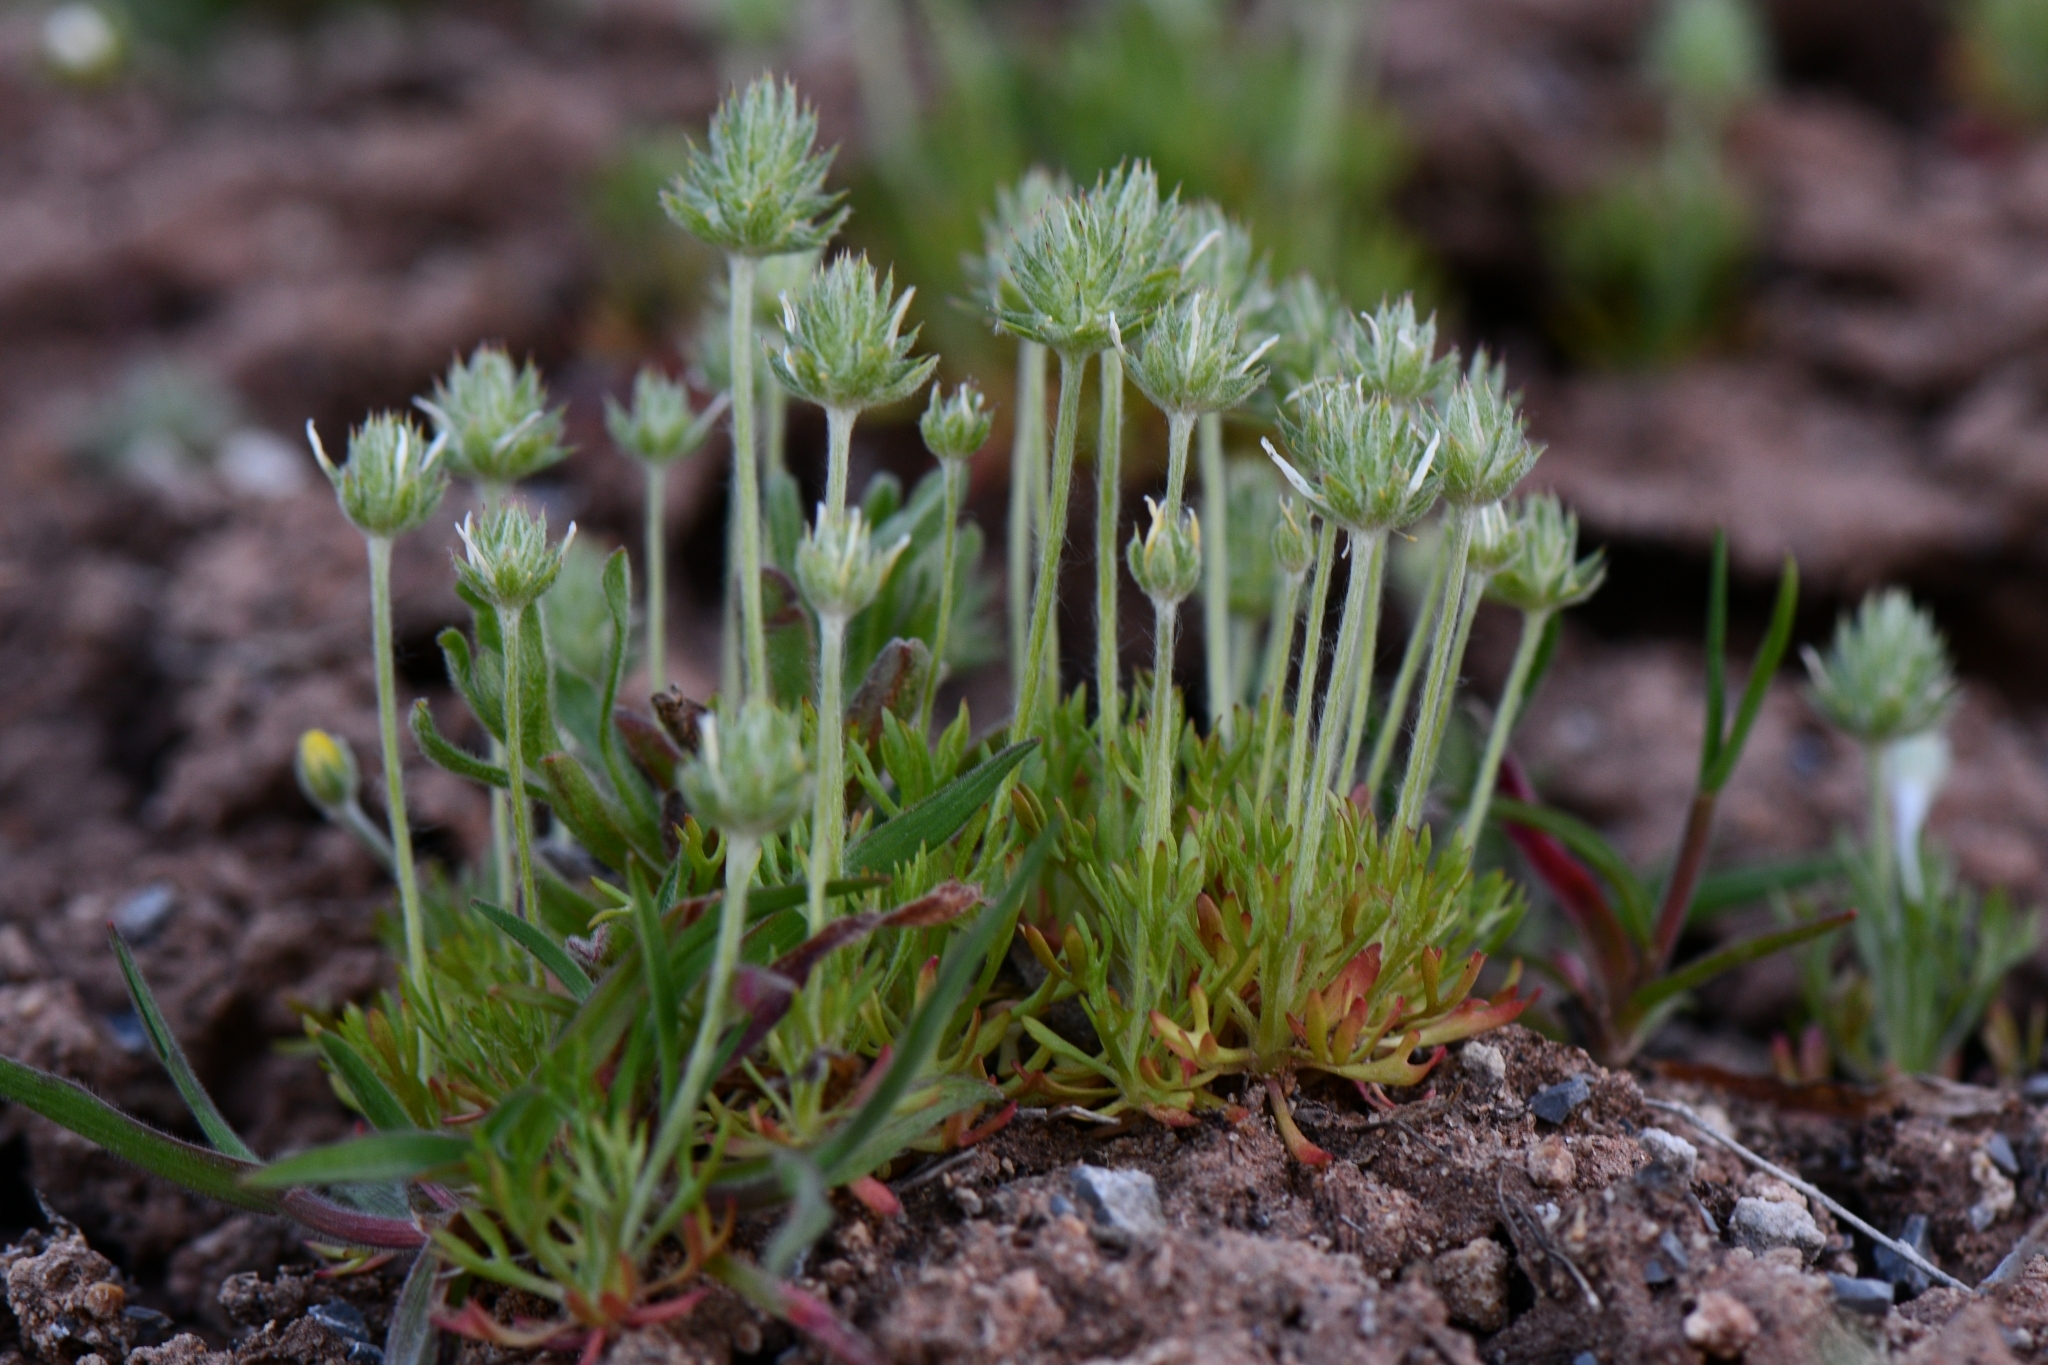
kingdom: Plantae
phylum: Tracheophyta
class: Magnoliopsida
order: Ranunculales
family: Ranunculaceae
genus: Ceratocephala
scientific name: Ceratocephala orthoceras
